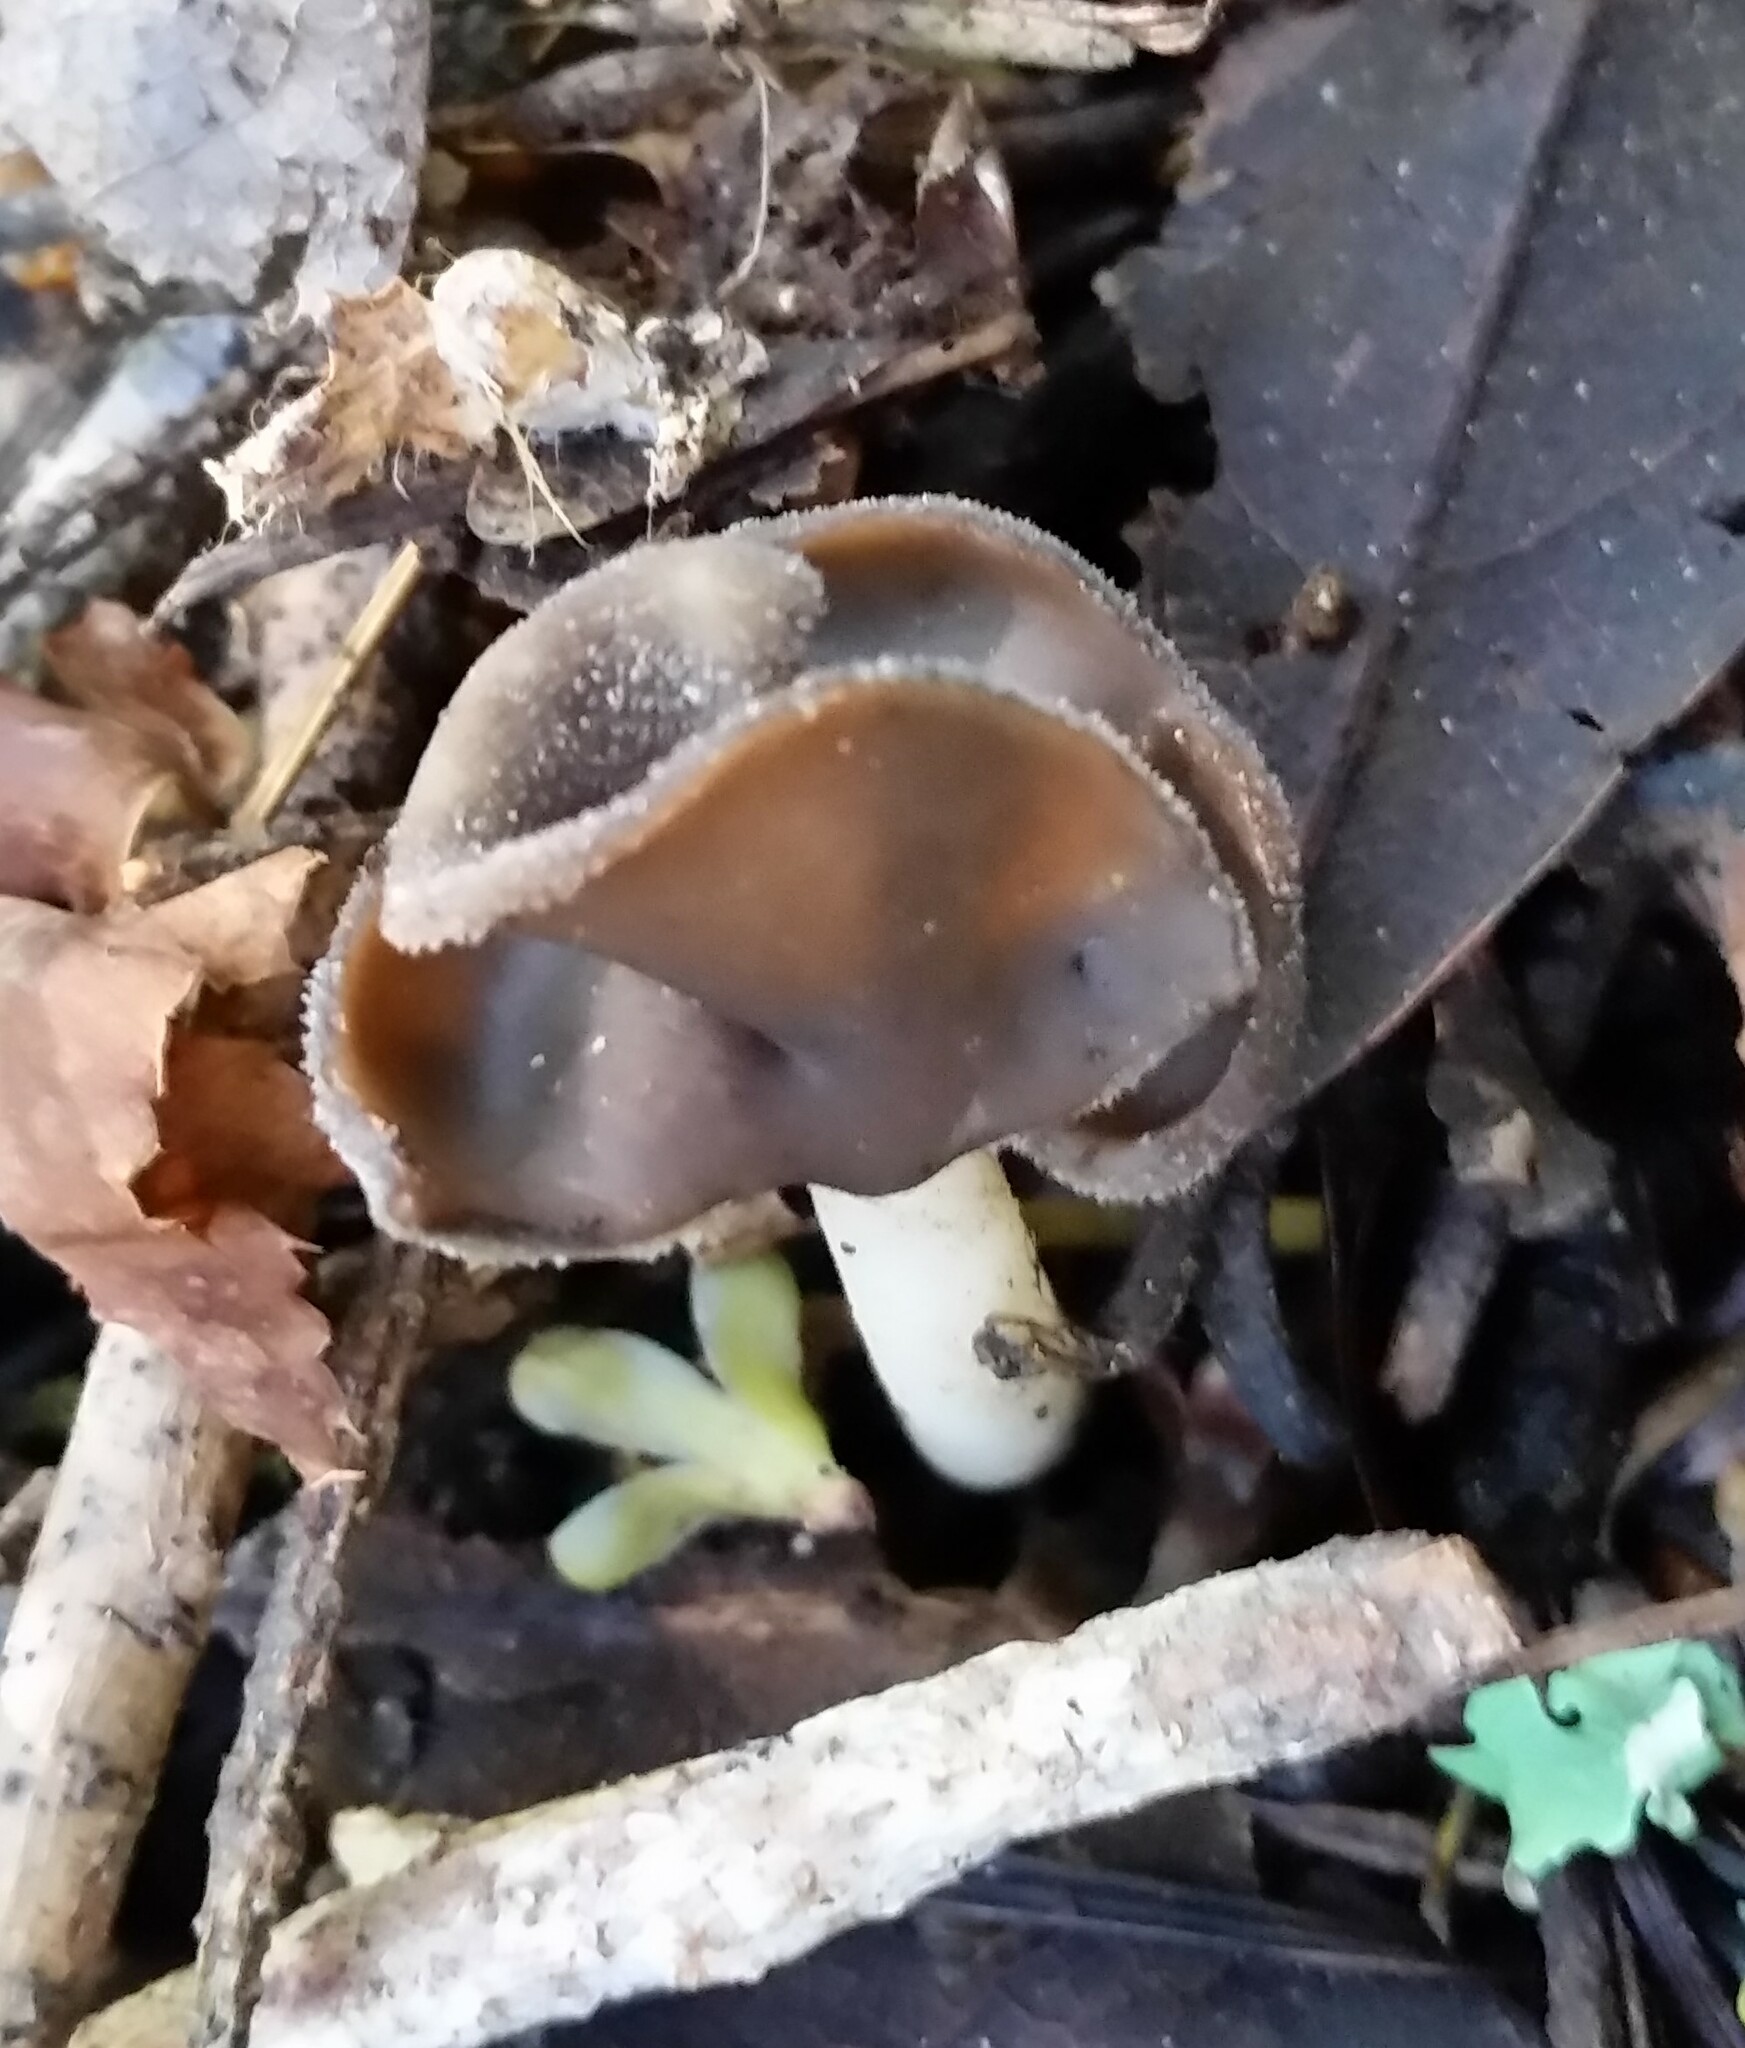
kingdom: Fungi
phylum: Ascomycota
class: Pezizomycetes
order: Pezizales
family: Helvellaceae
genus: Helvella
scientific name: Helvella compressa
